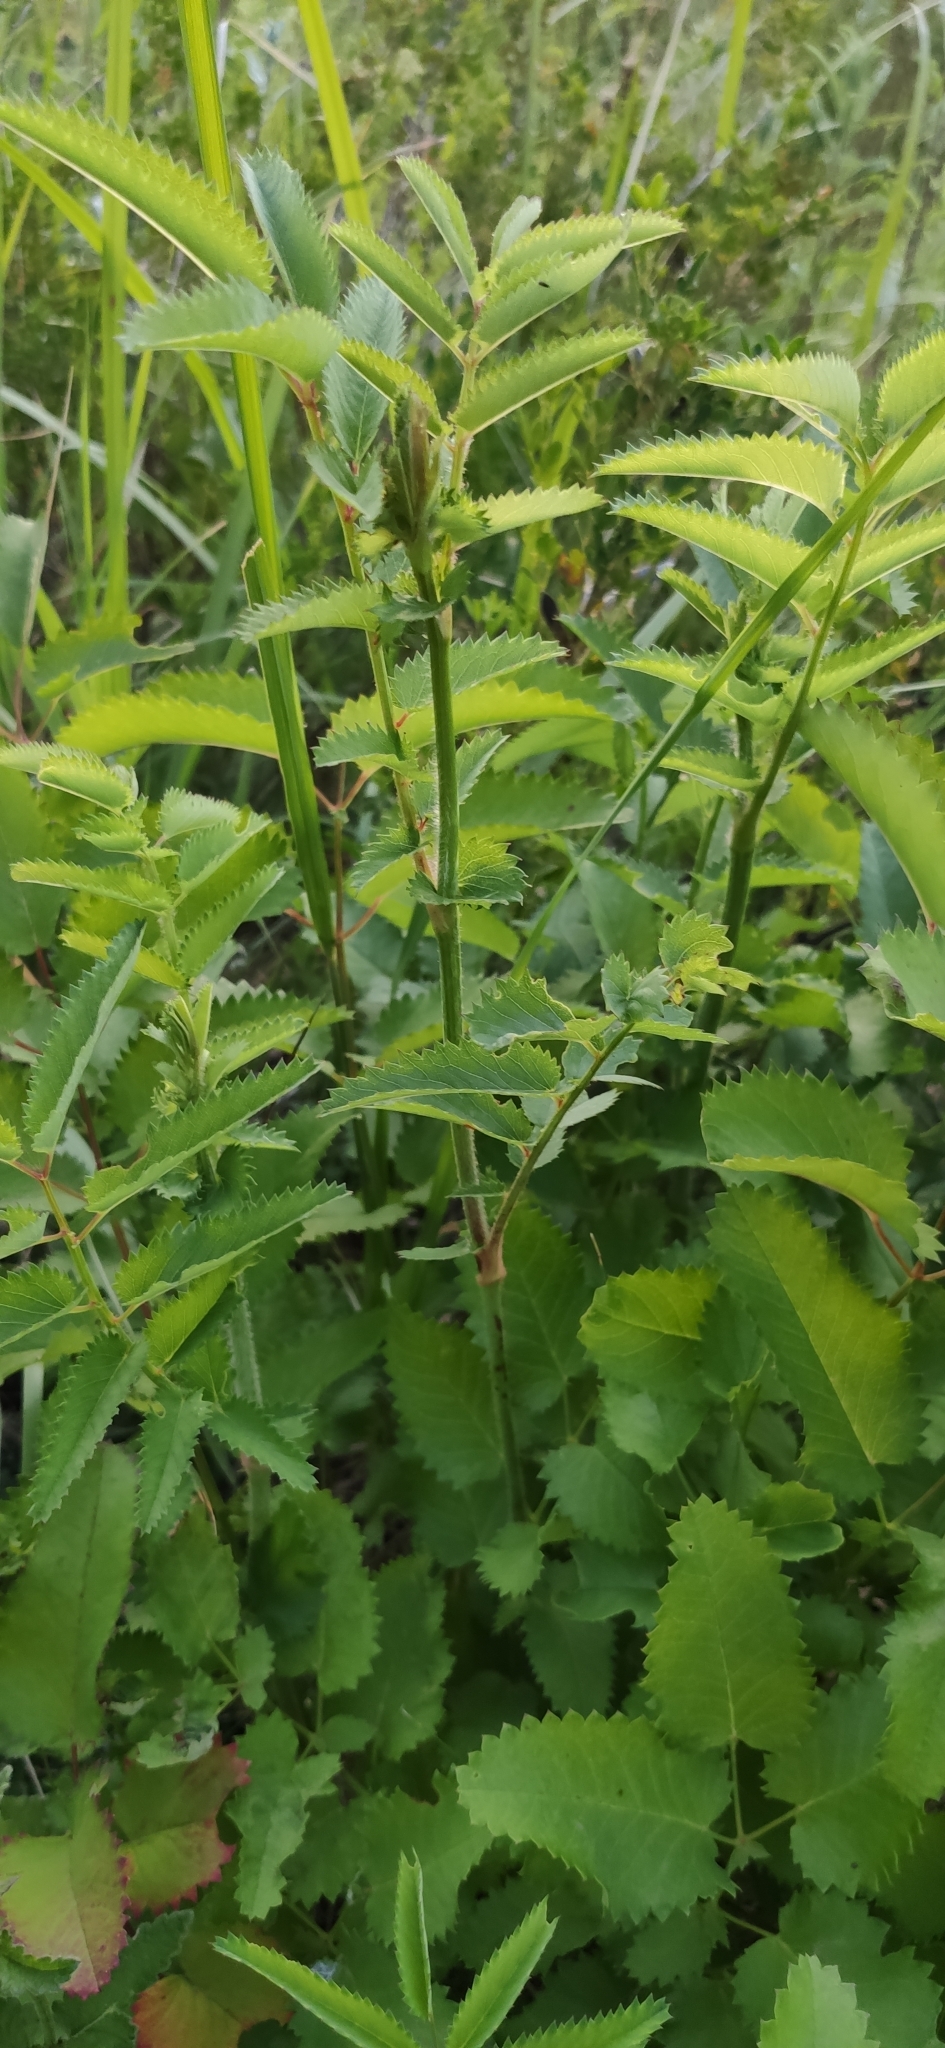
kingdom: Plantae
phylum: Tracheophyta
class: Magnoliopsida
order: Rosales
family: Rosaceae
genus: Sanguisorba
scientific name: Sanguisorba officinalis
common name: Great burnet
